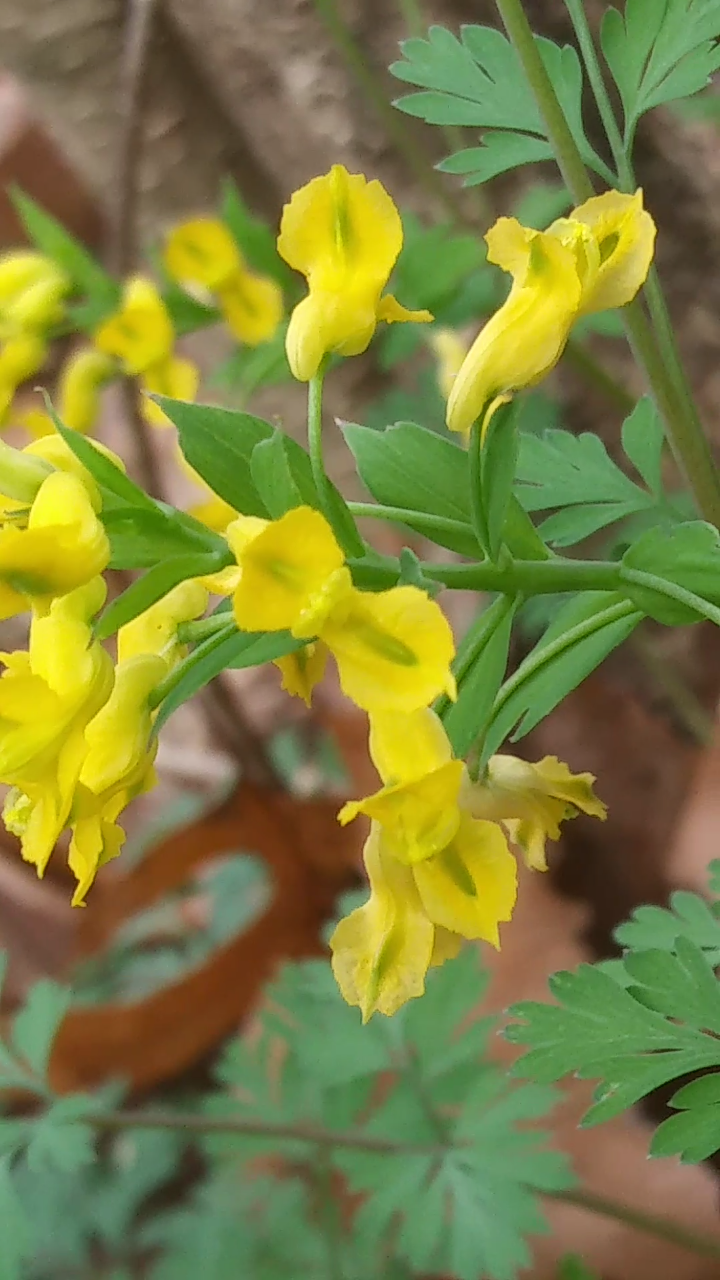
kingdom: Plantae
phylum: Tracheophyta
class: Magnoliopsida
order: Ranunculales
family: Papaveraceae
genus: Corydalis
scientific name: Corydalis flavula
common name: Yellow corydalis
